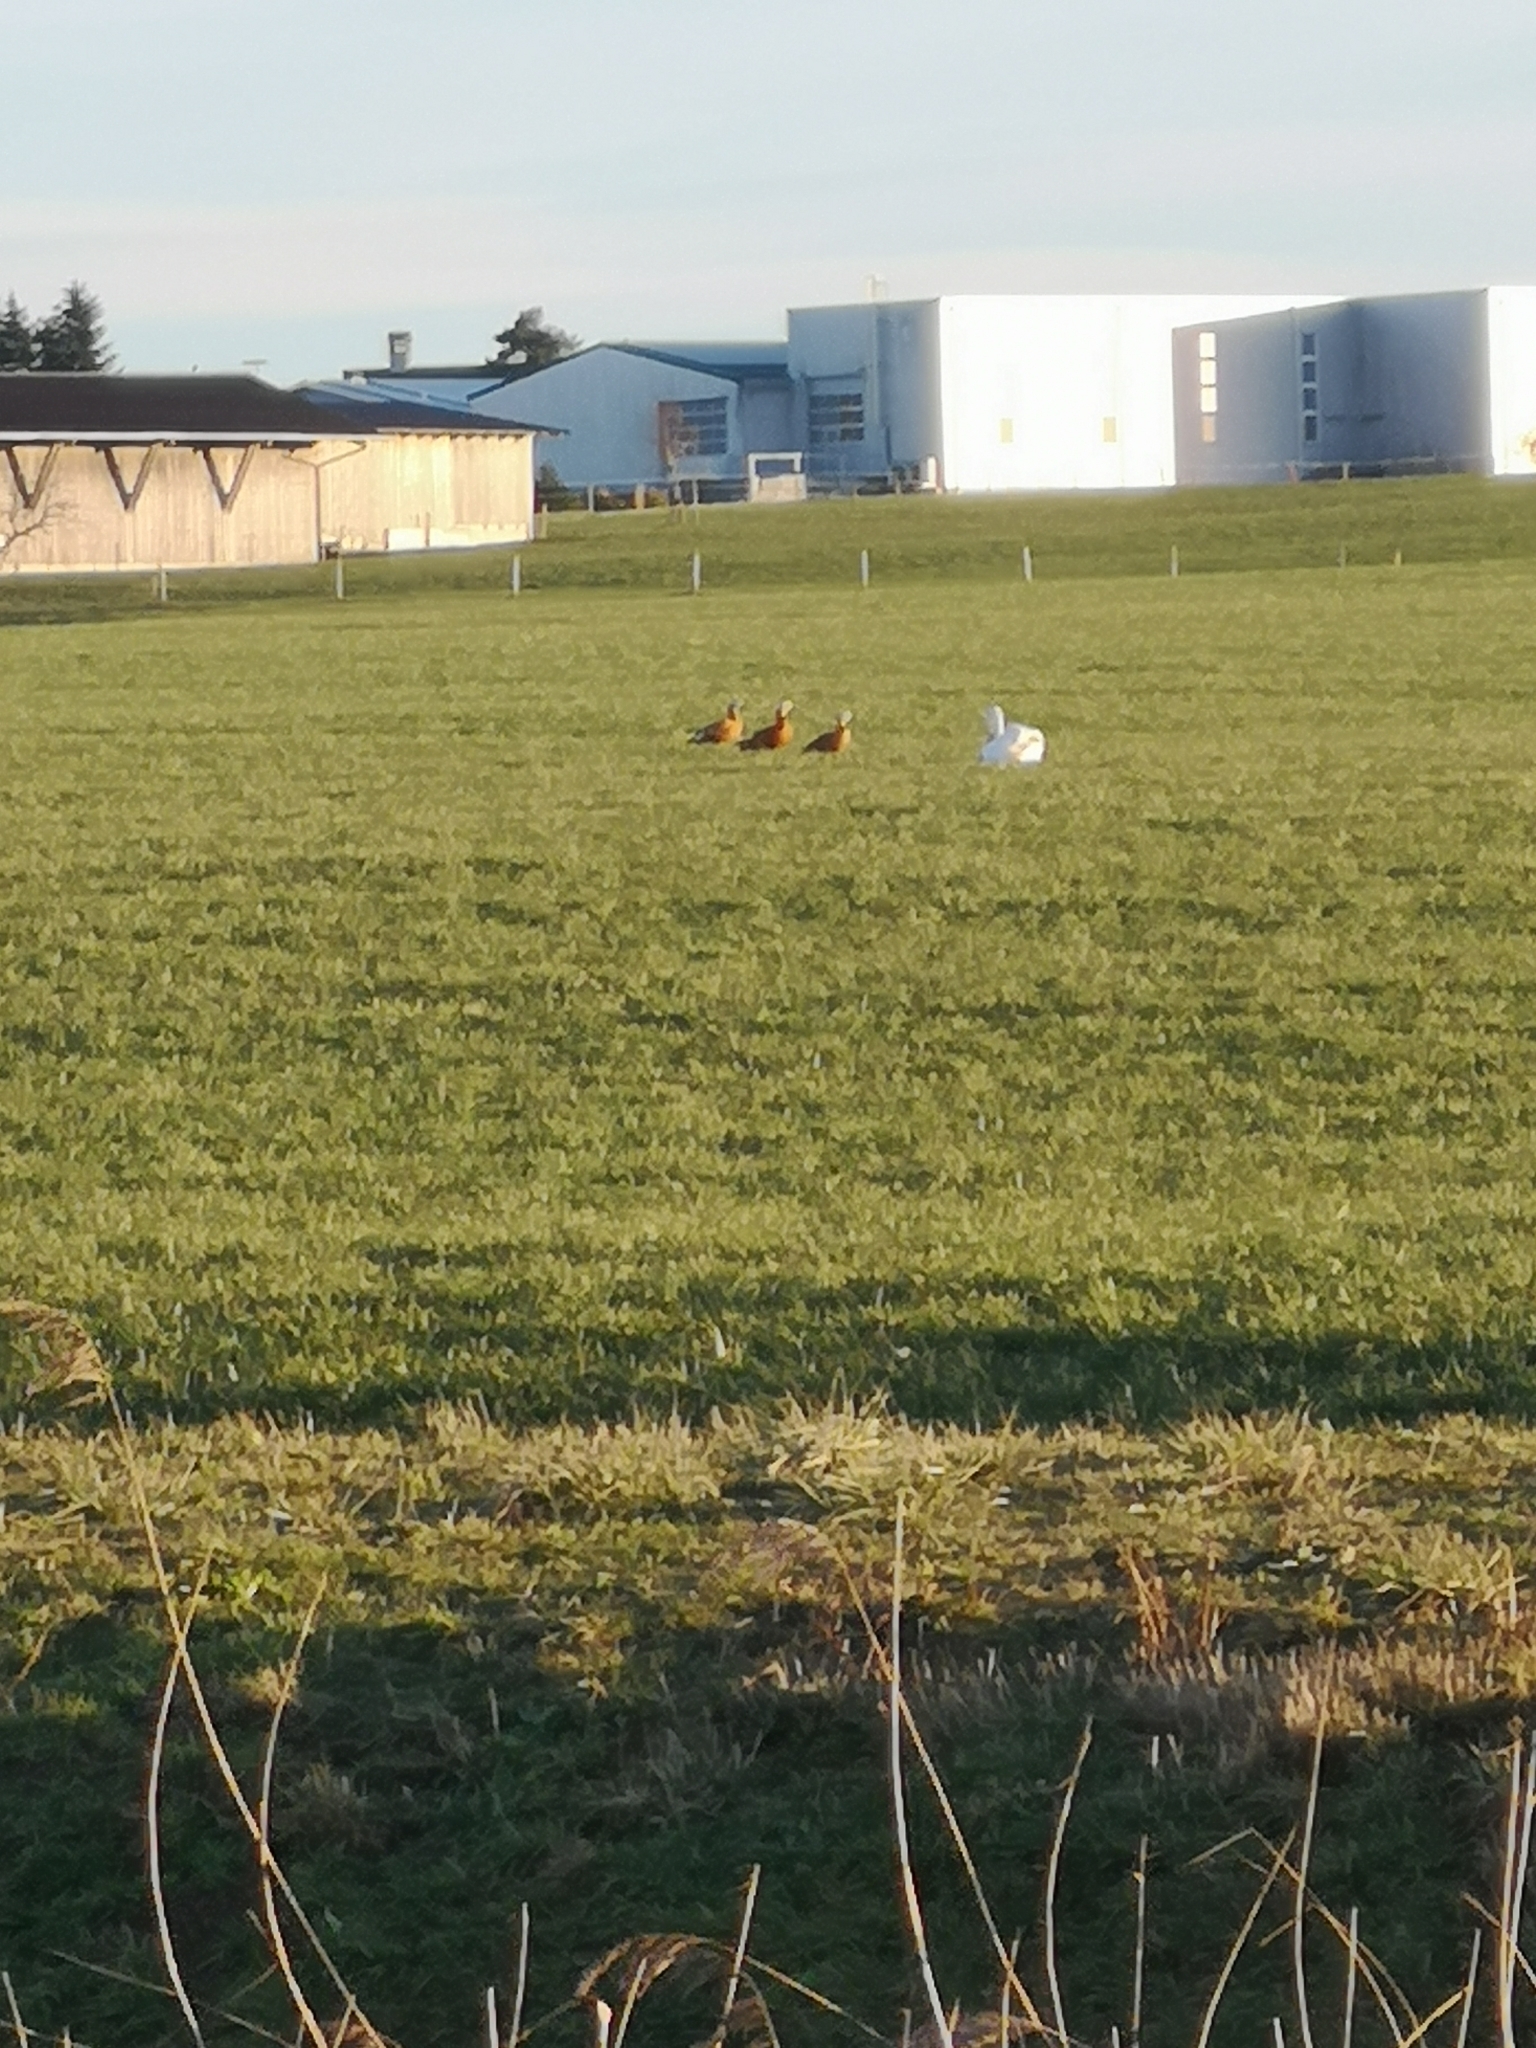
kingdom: Animalia
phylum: Chordata
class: Aves
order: Anseriformes
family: Anatidae
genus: Tadorna
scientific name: Tadorna ferruginea
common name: Ruddy shelduck
